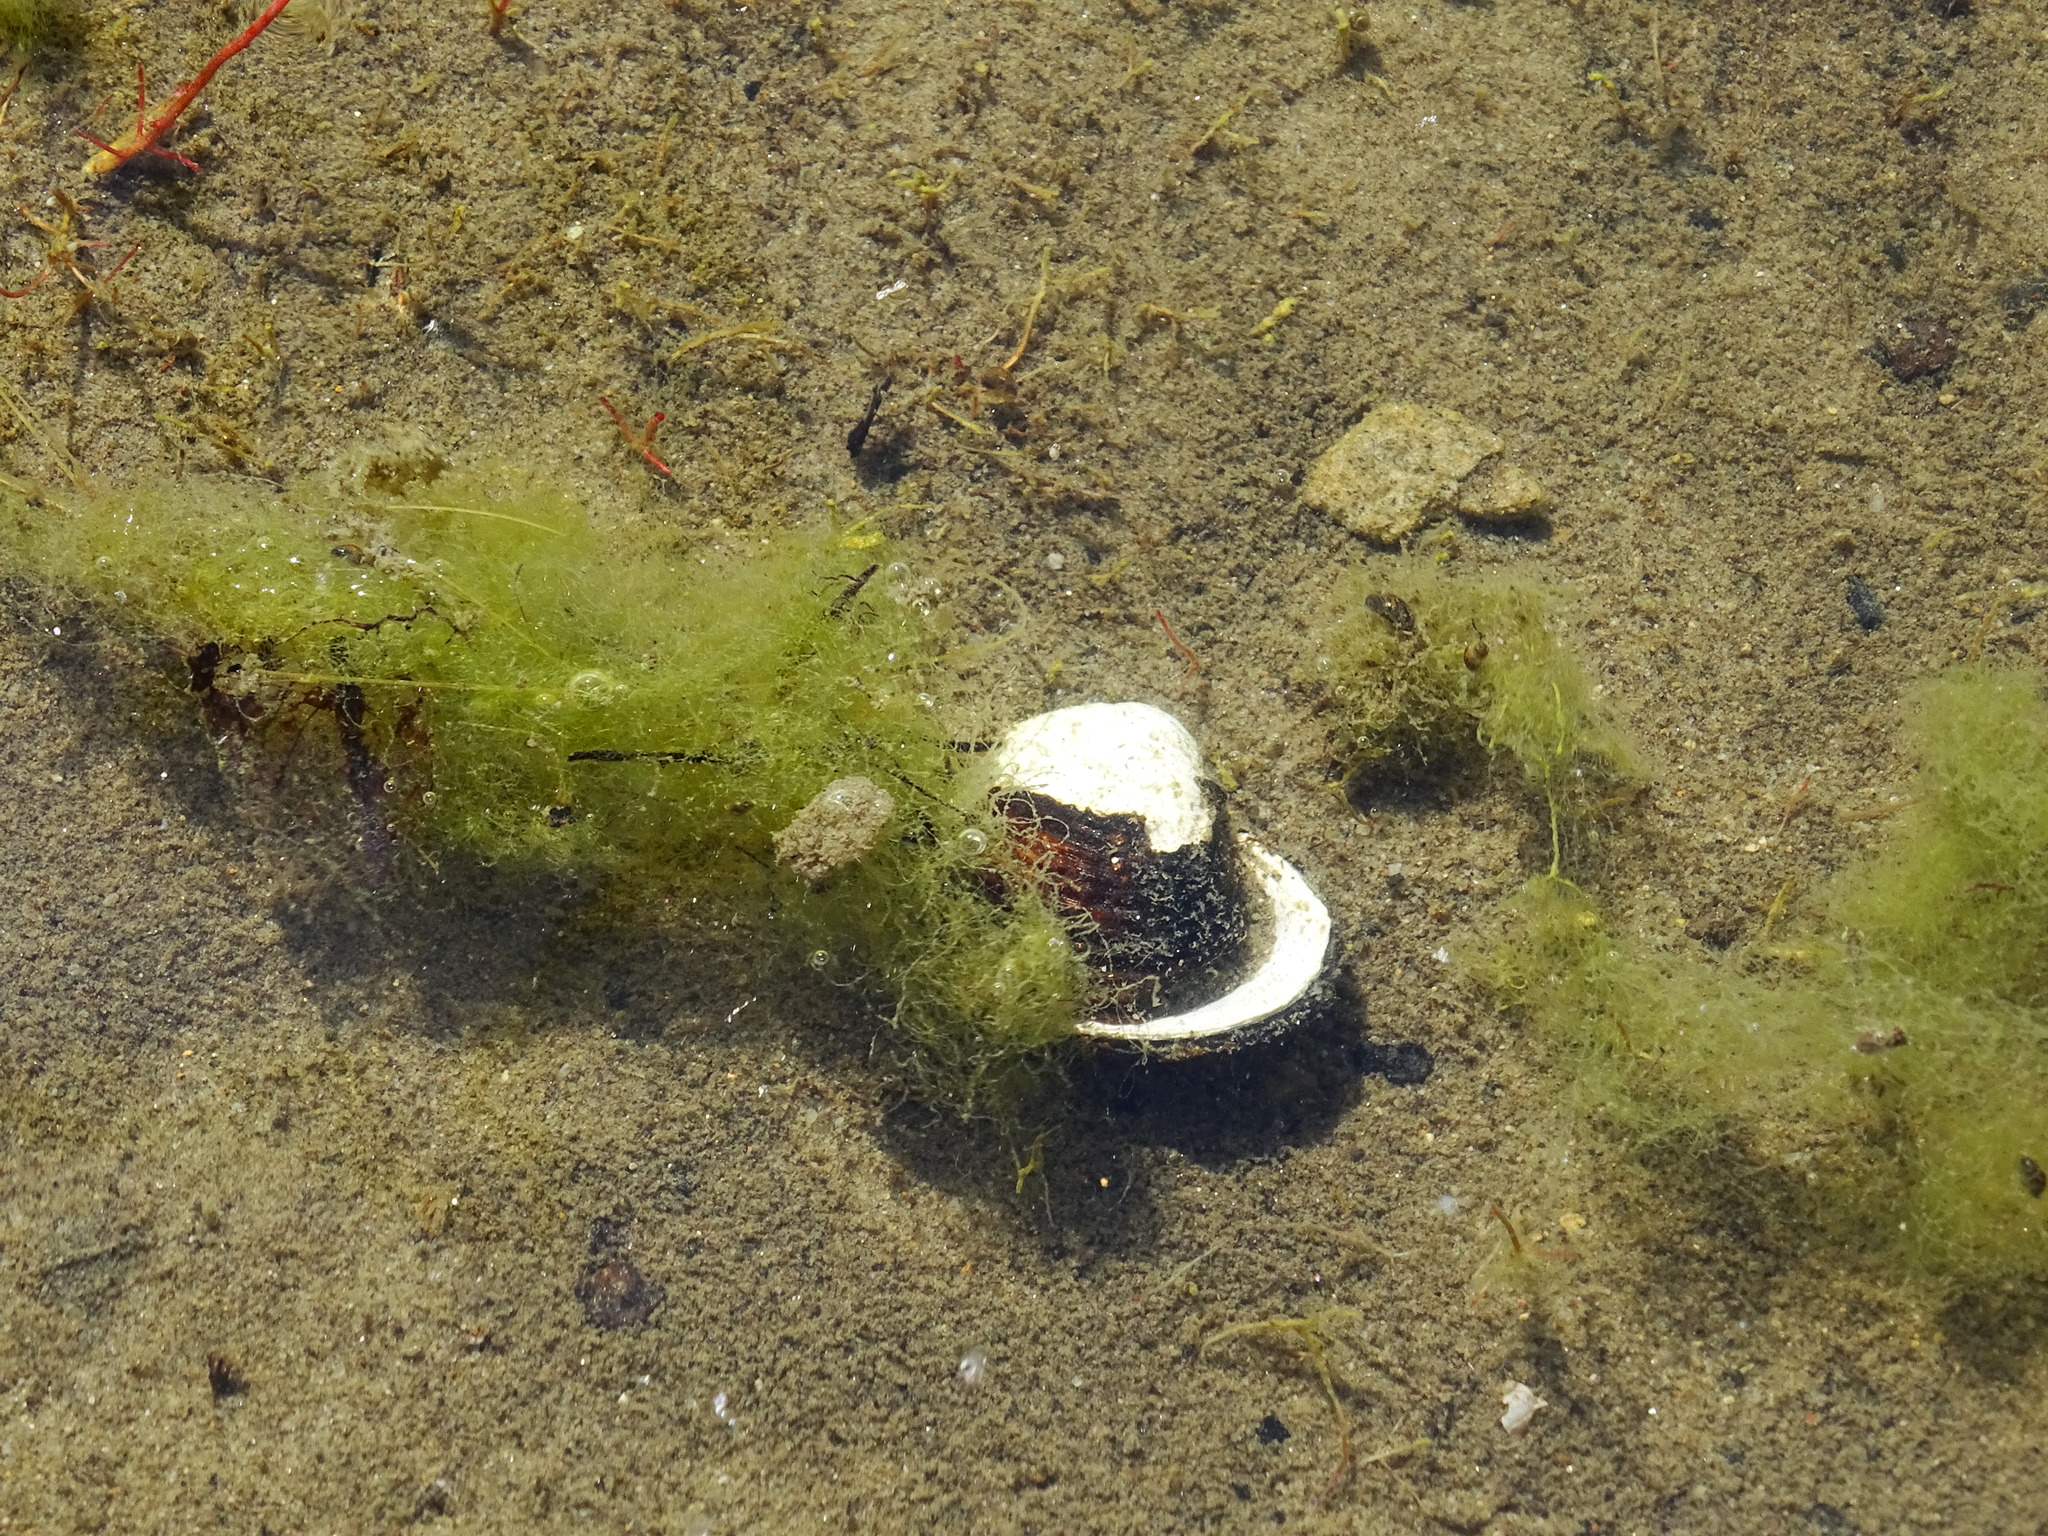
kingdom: Animalia
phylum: Mollusca
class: Bivalvia
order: Venerida
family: Cyrenidae
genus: Corbicula
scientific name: Corbicula fluminea
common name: Asian clam
